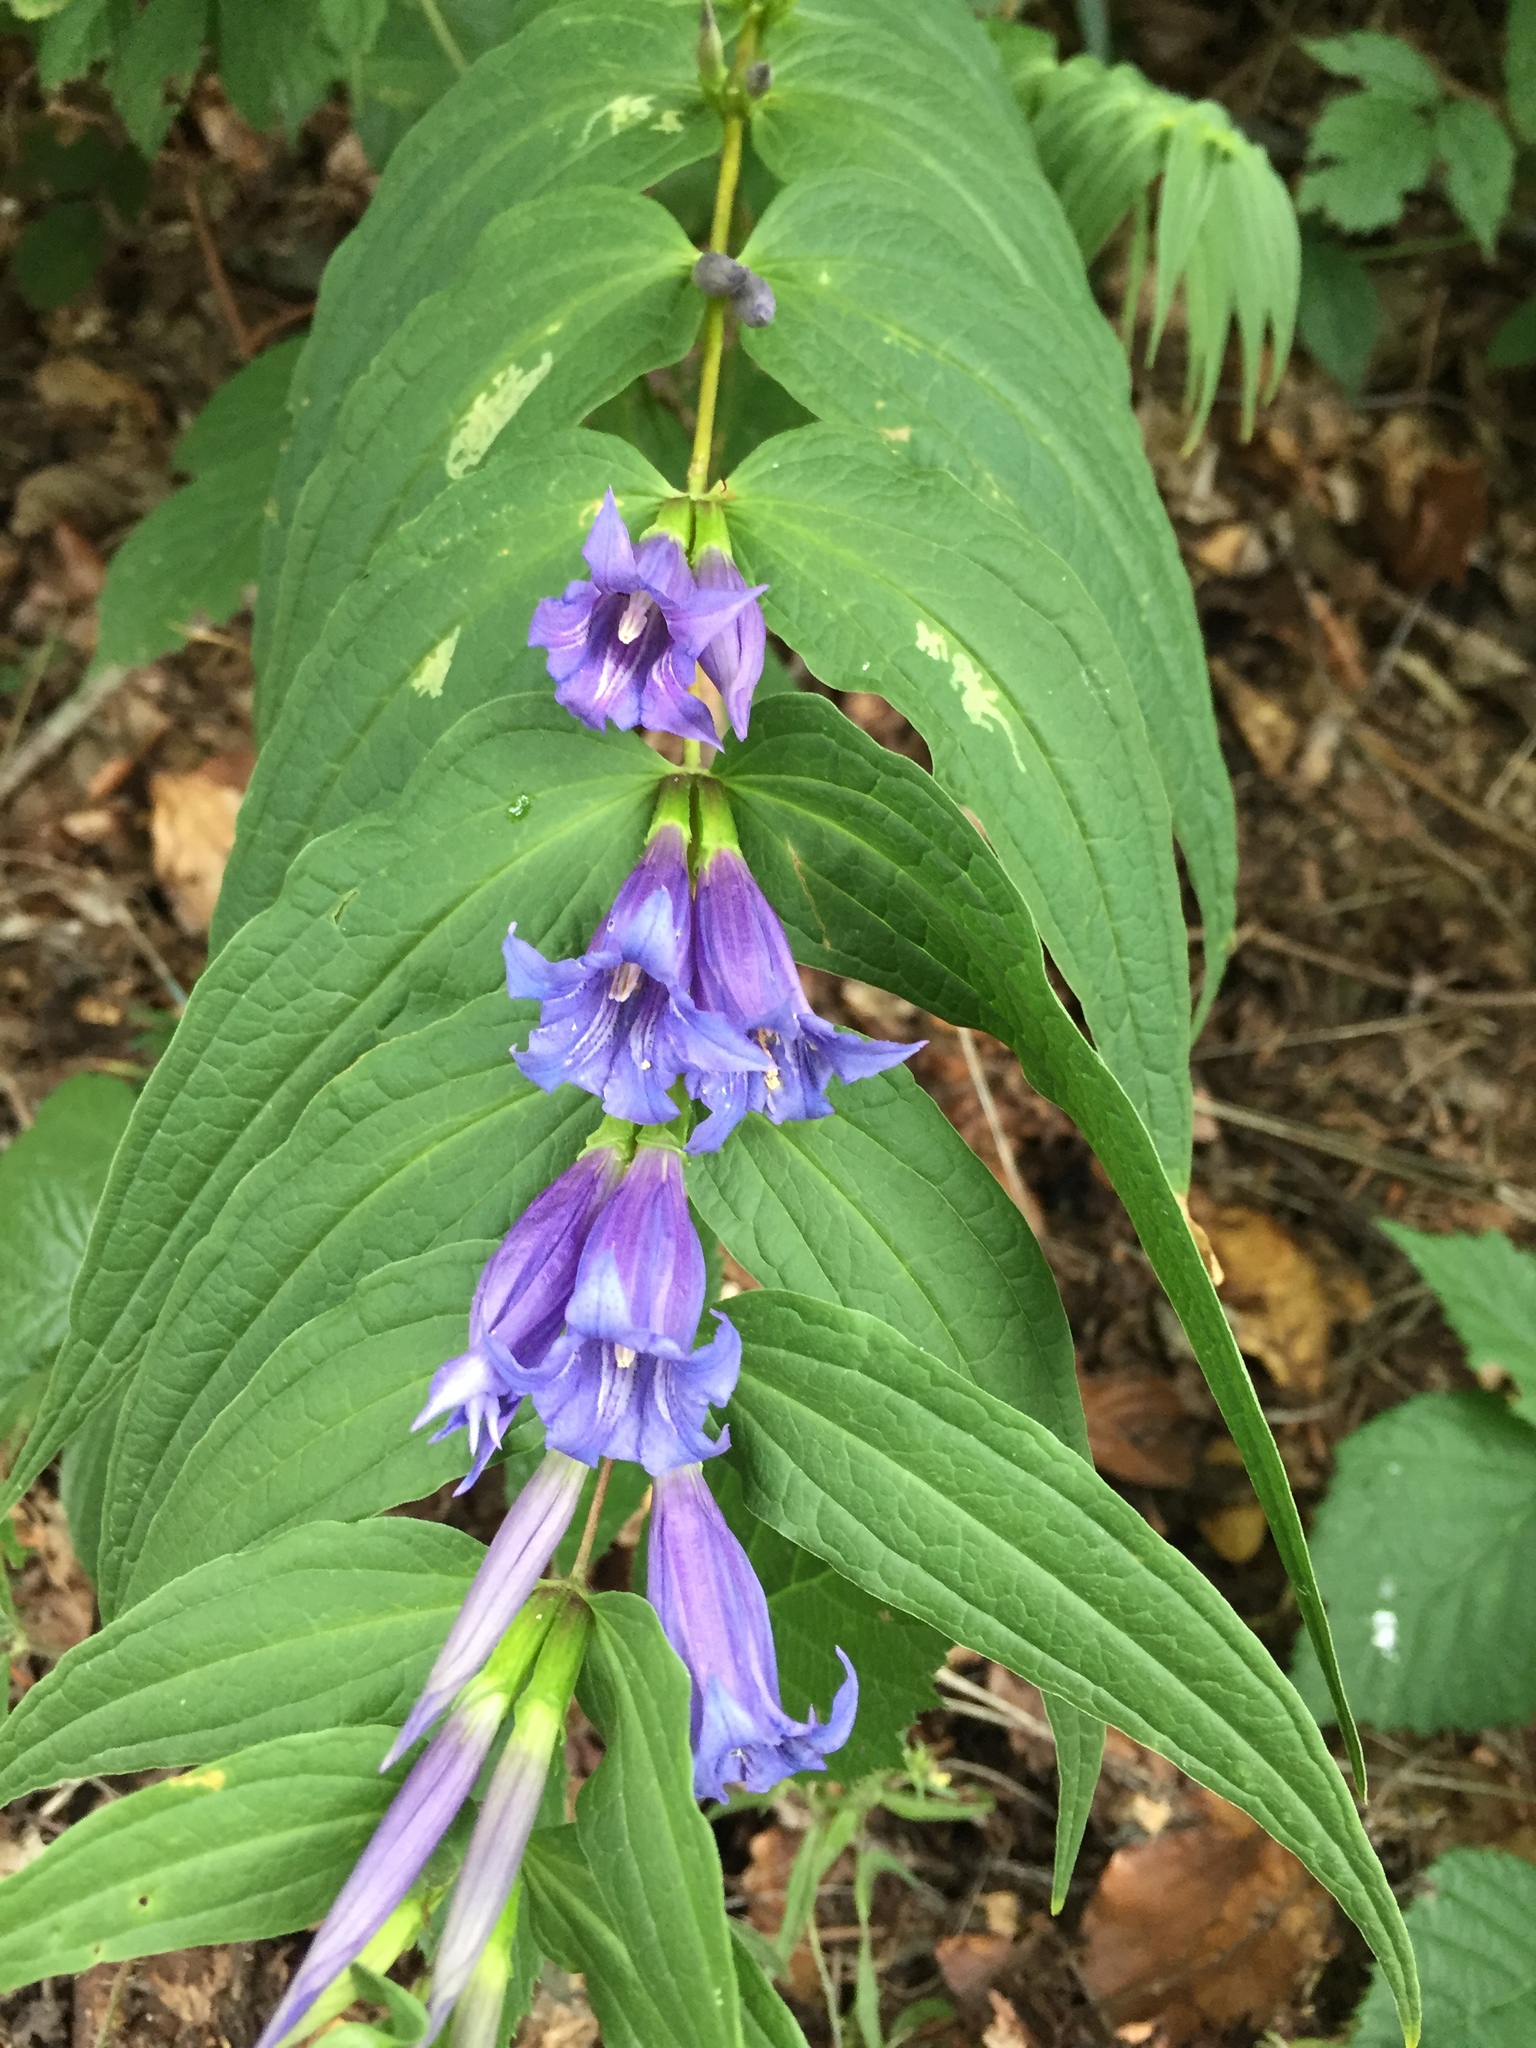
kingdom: Plantae
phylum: Tracheophyta
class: Magnoliopsida
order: Gentianales
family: Gentianaceae
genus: Gentiana
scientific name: Gentiana asclepiadea
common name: Willow gentian
